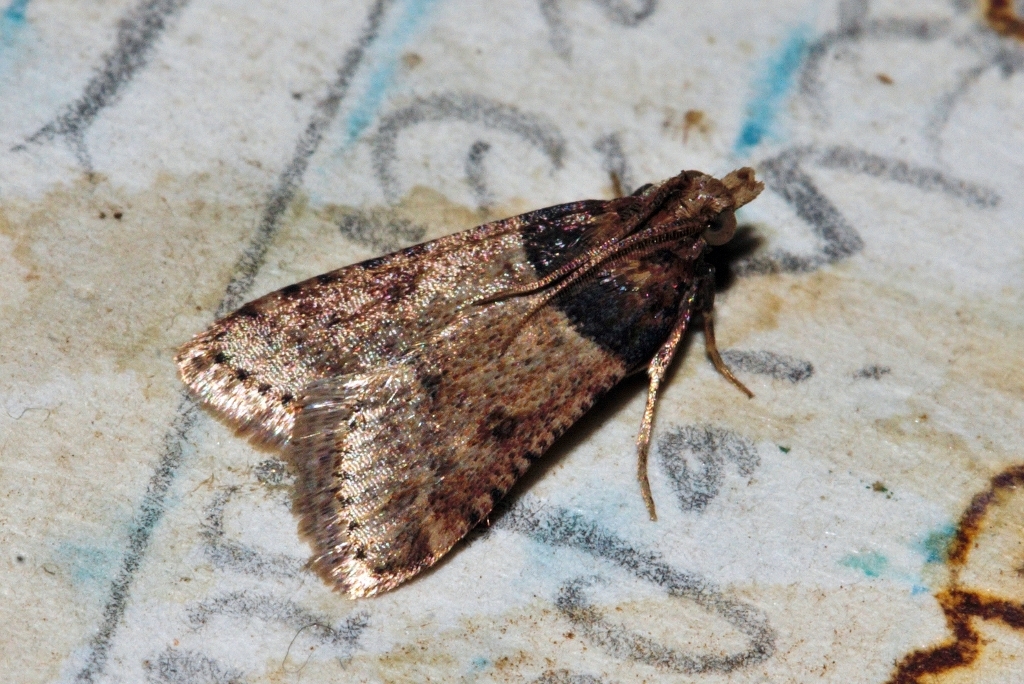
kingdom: Animalia
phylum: Arthropoda
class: Insecta
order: Lepidoptera
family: Pyralidae
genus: Philotis
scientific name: Philotis basalis
